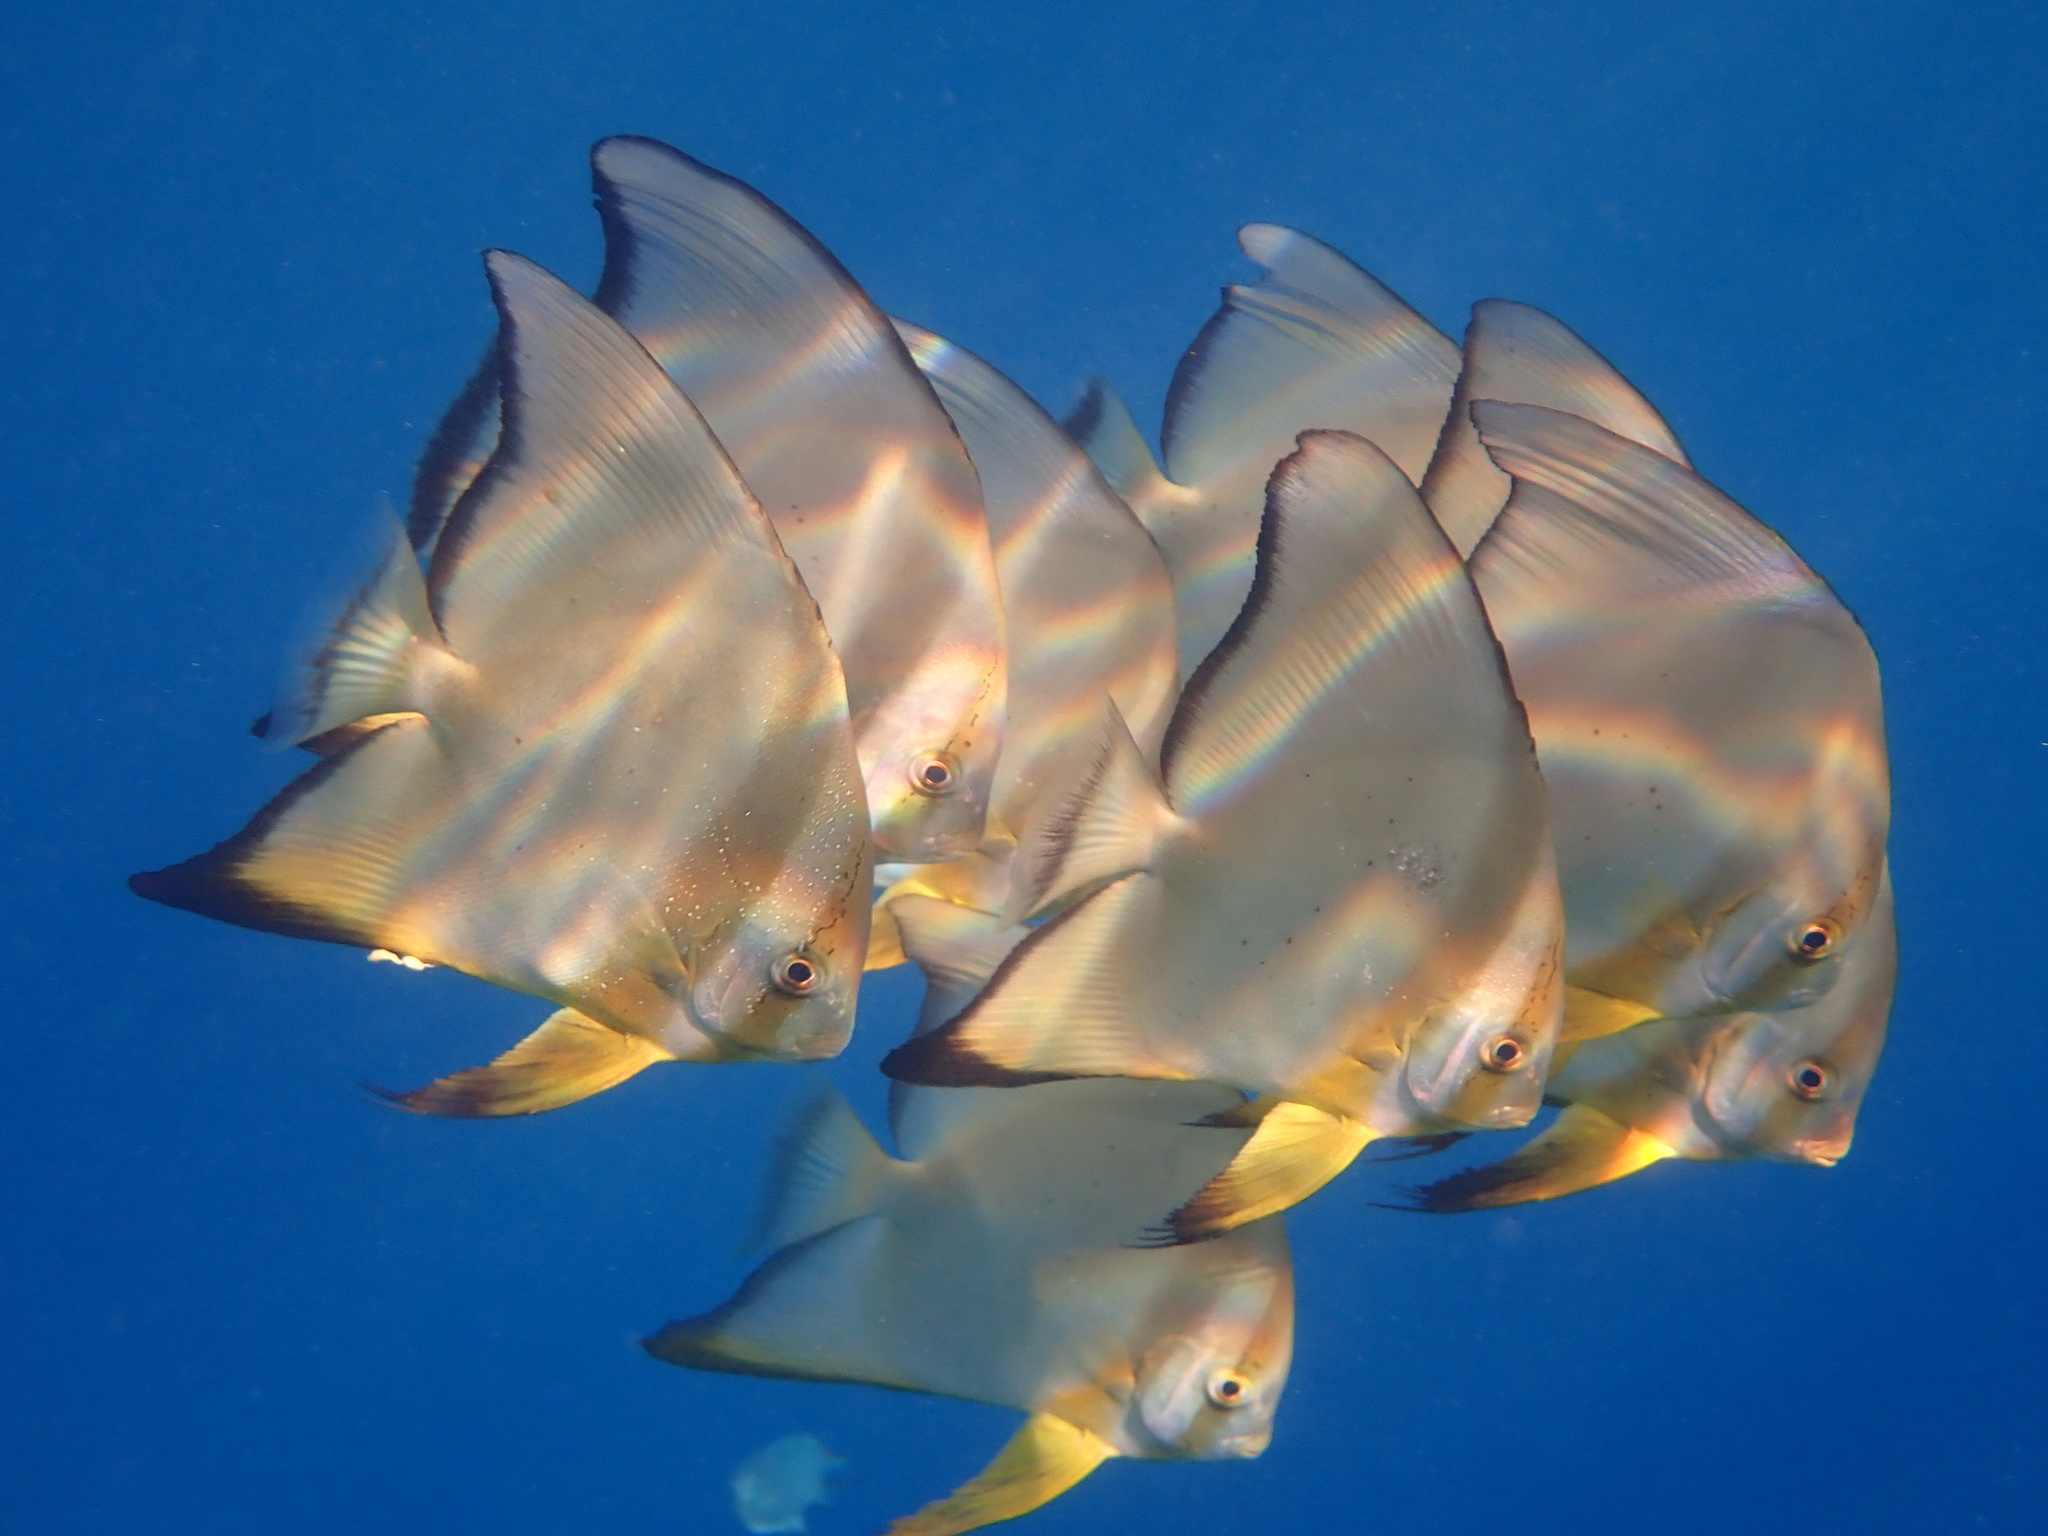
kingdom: Animalia
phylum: Chordata
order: Perciformes
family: Ephippidae
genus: Platax
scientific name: Platax orbicularis
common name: Batfish
